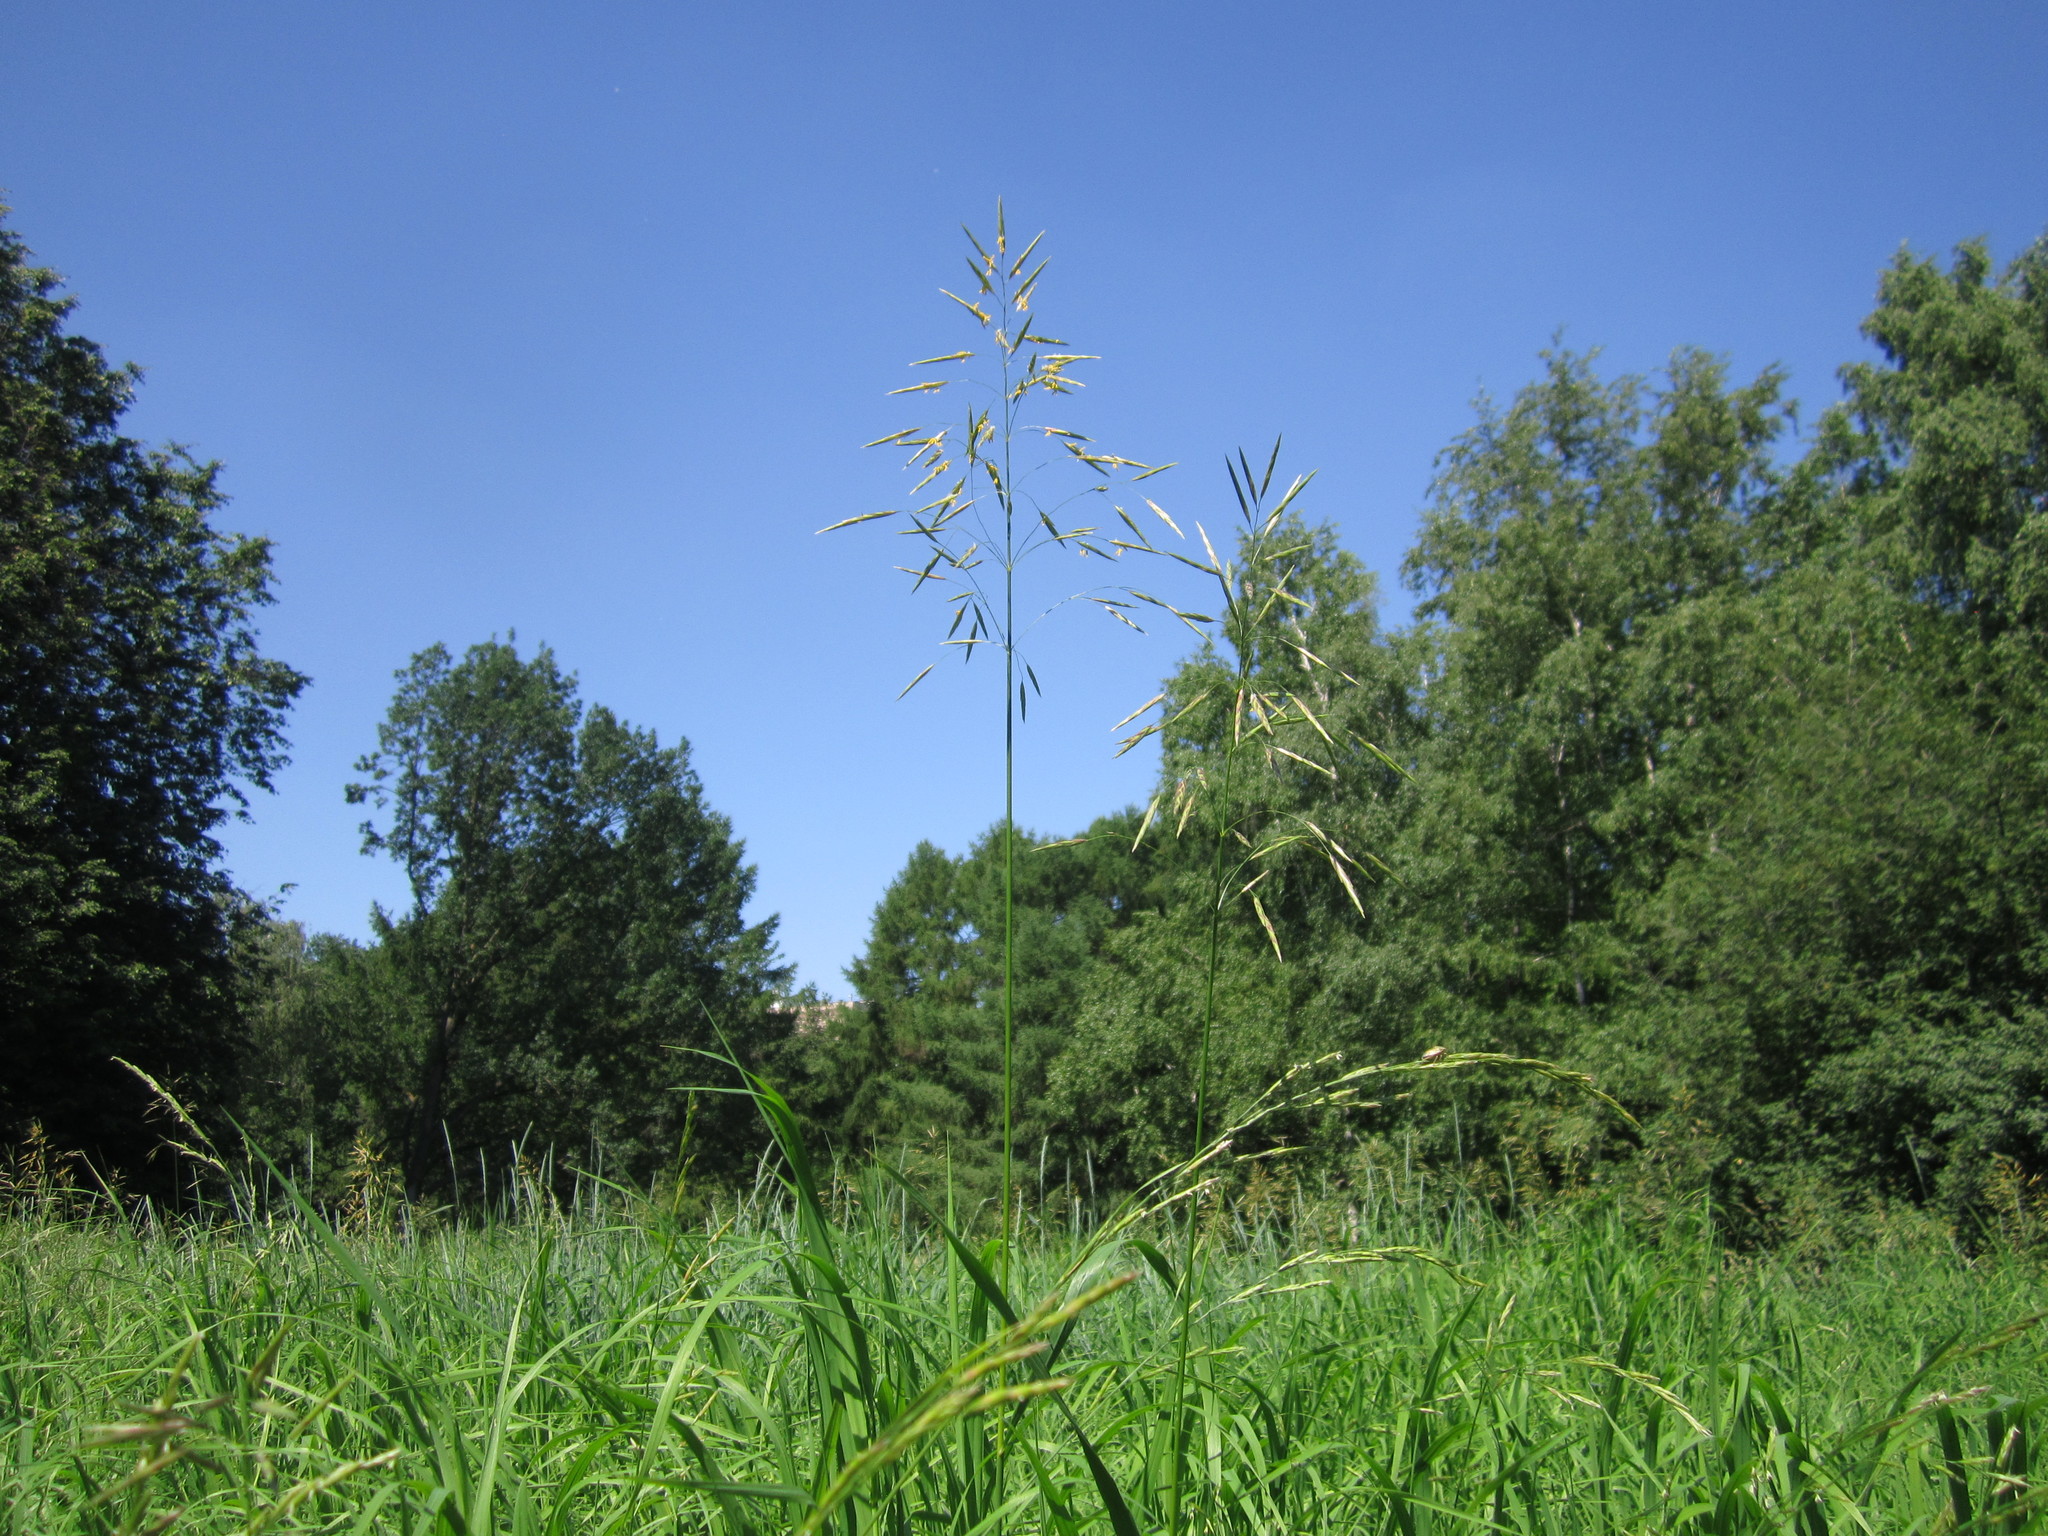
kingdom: Plantae
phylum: Tracheophyta
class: Liliopsida
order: Poales
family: Poaceae
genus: Bromus
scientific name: Bromus inermis
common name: Smooth brome
